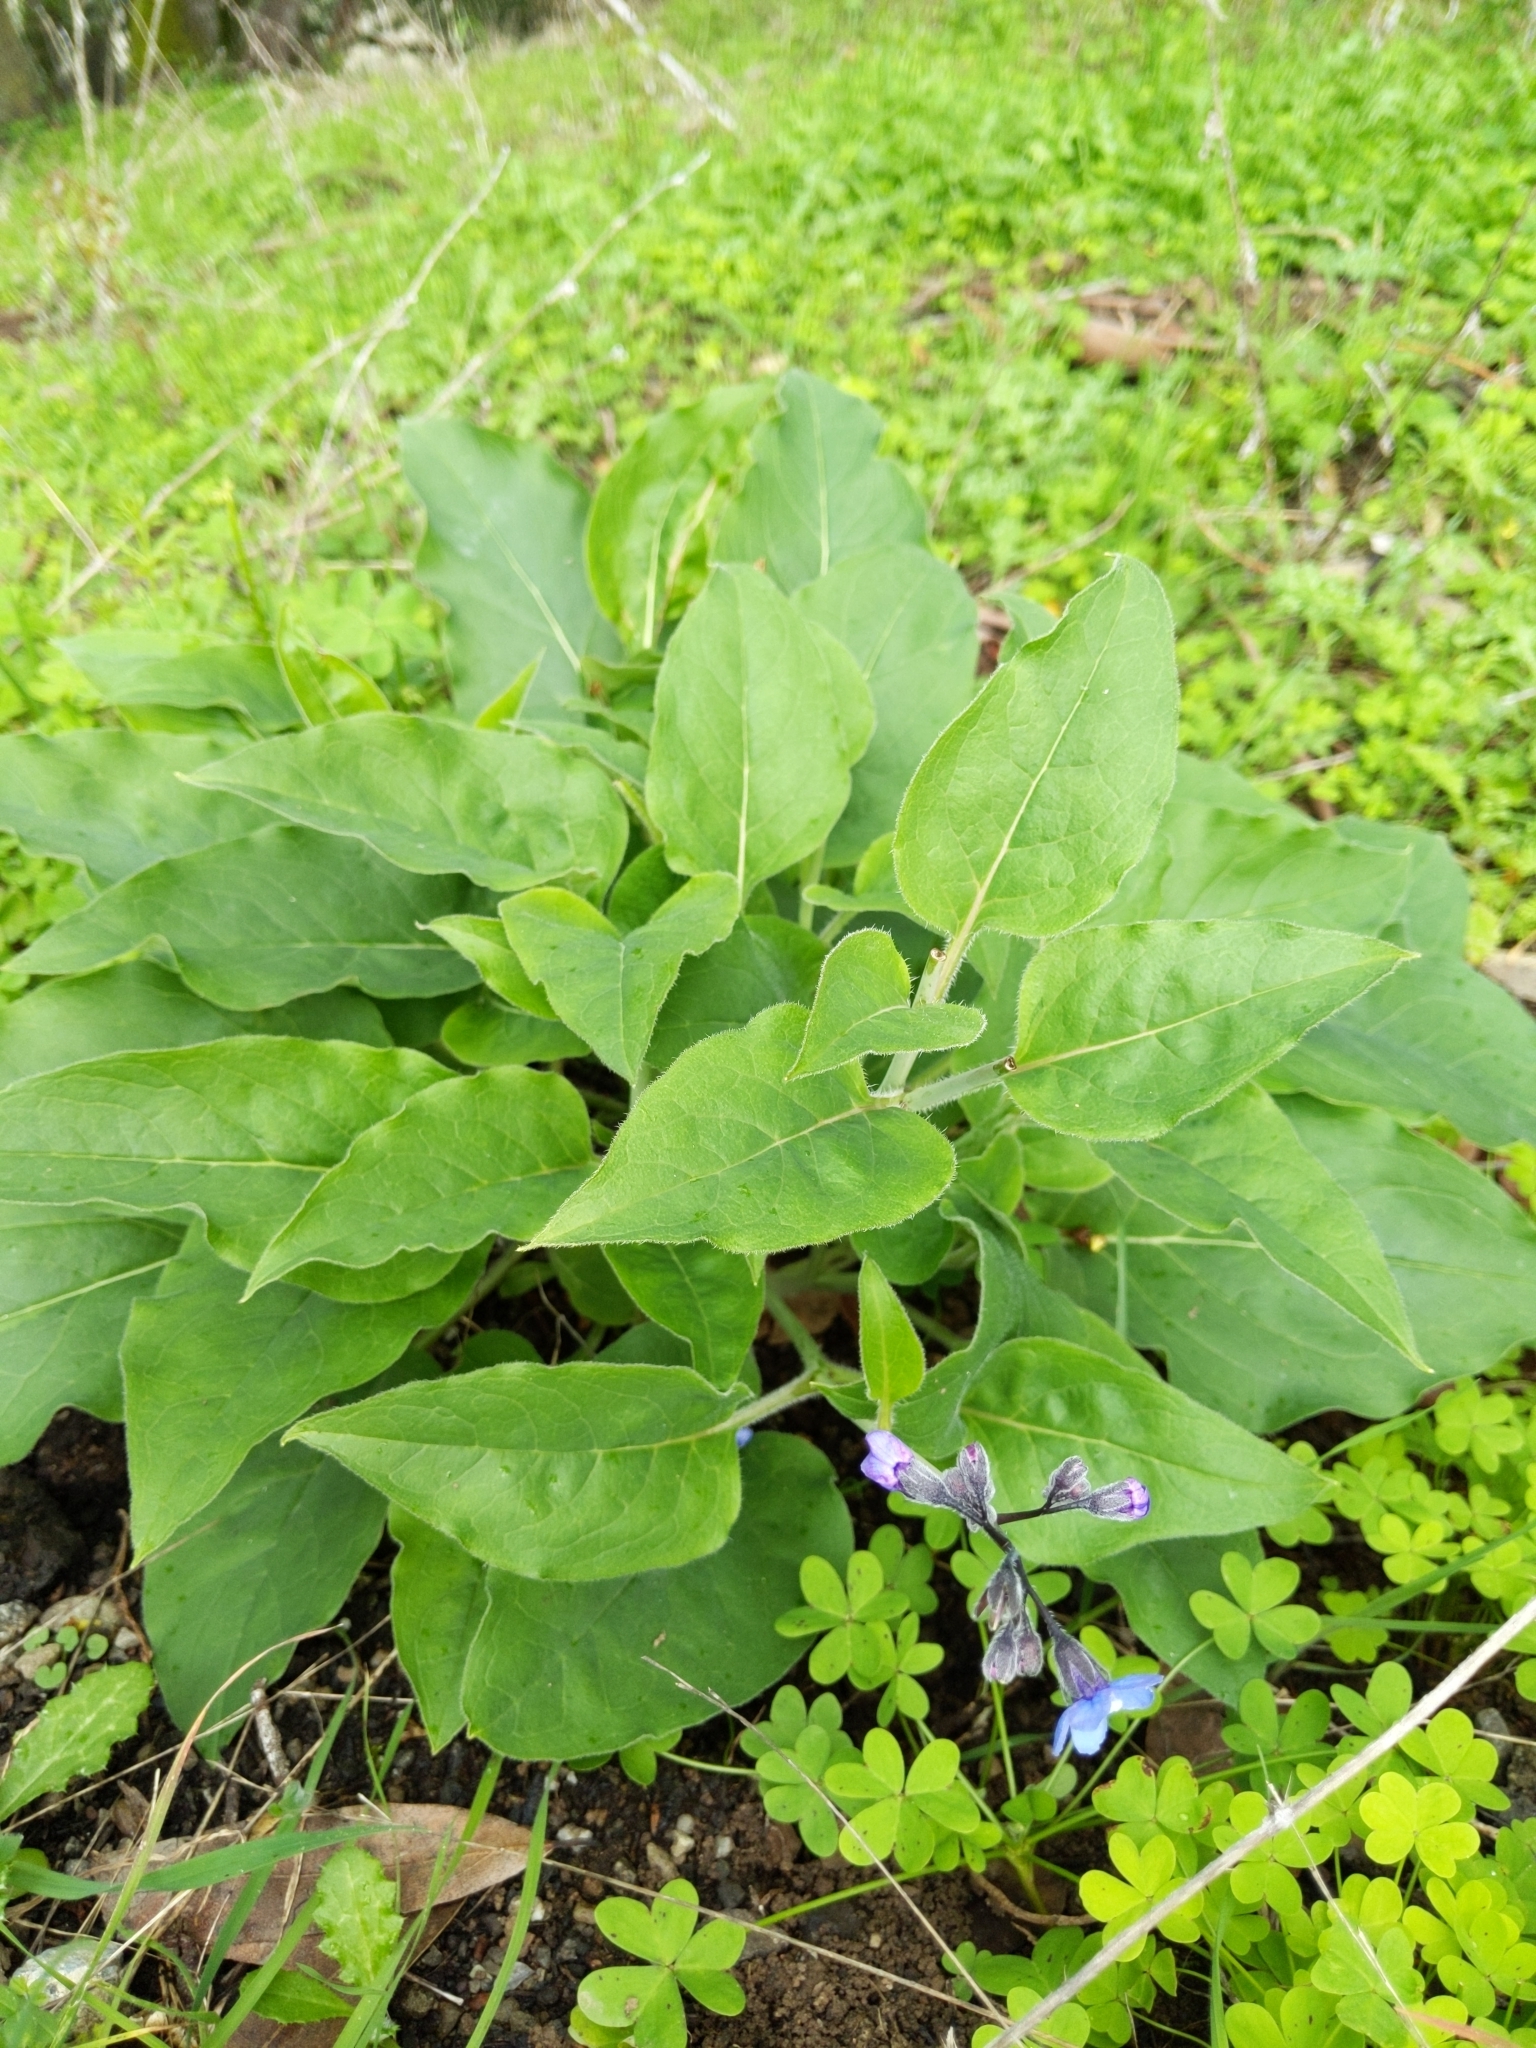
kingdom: Plantae
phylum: Tracheophyta
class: Magnoliopsida
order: Boraginales
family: Boraginaceae
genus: Adelinia
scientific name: Adelinia grande
